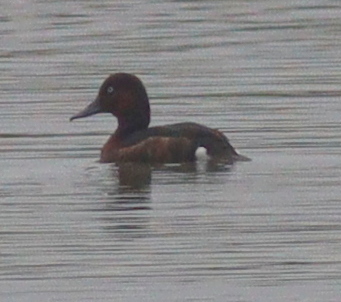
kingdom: Animalia
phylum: Chordata
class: Aves
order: Anseriformes
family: Anatidae
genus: Aythya
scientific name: Aythya nyroca
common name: Ferruginous duck
